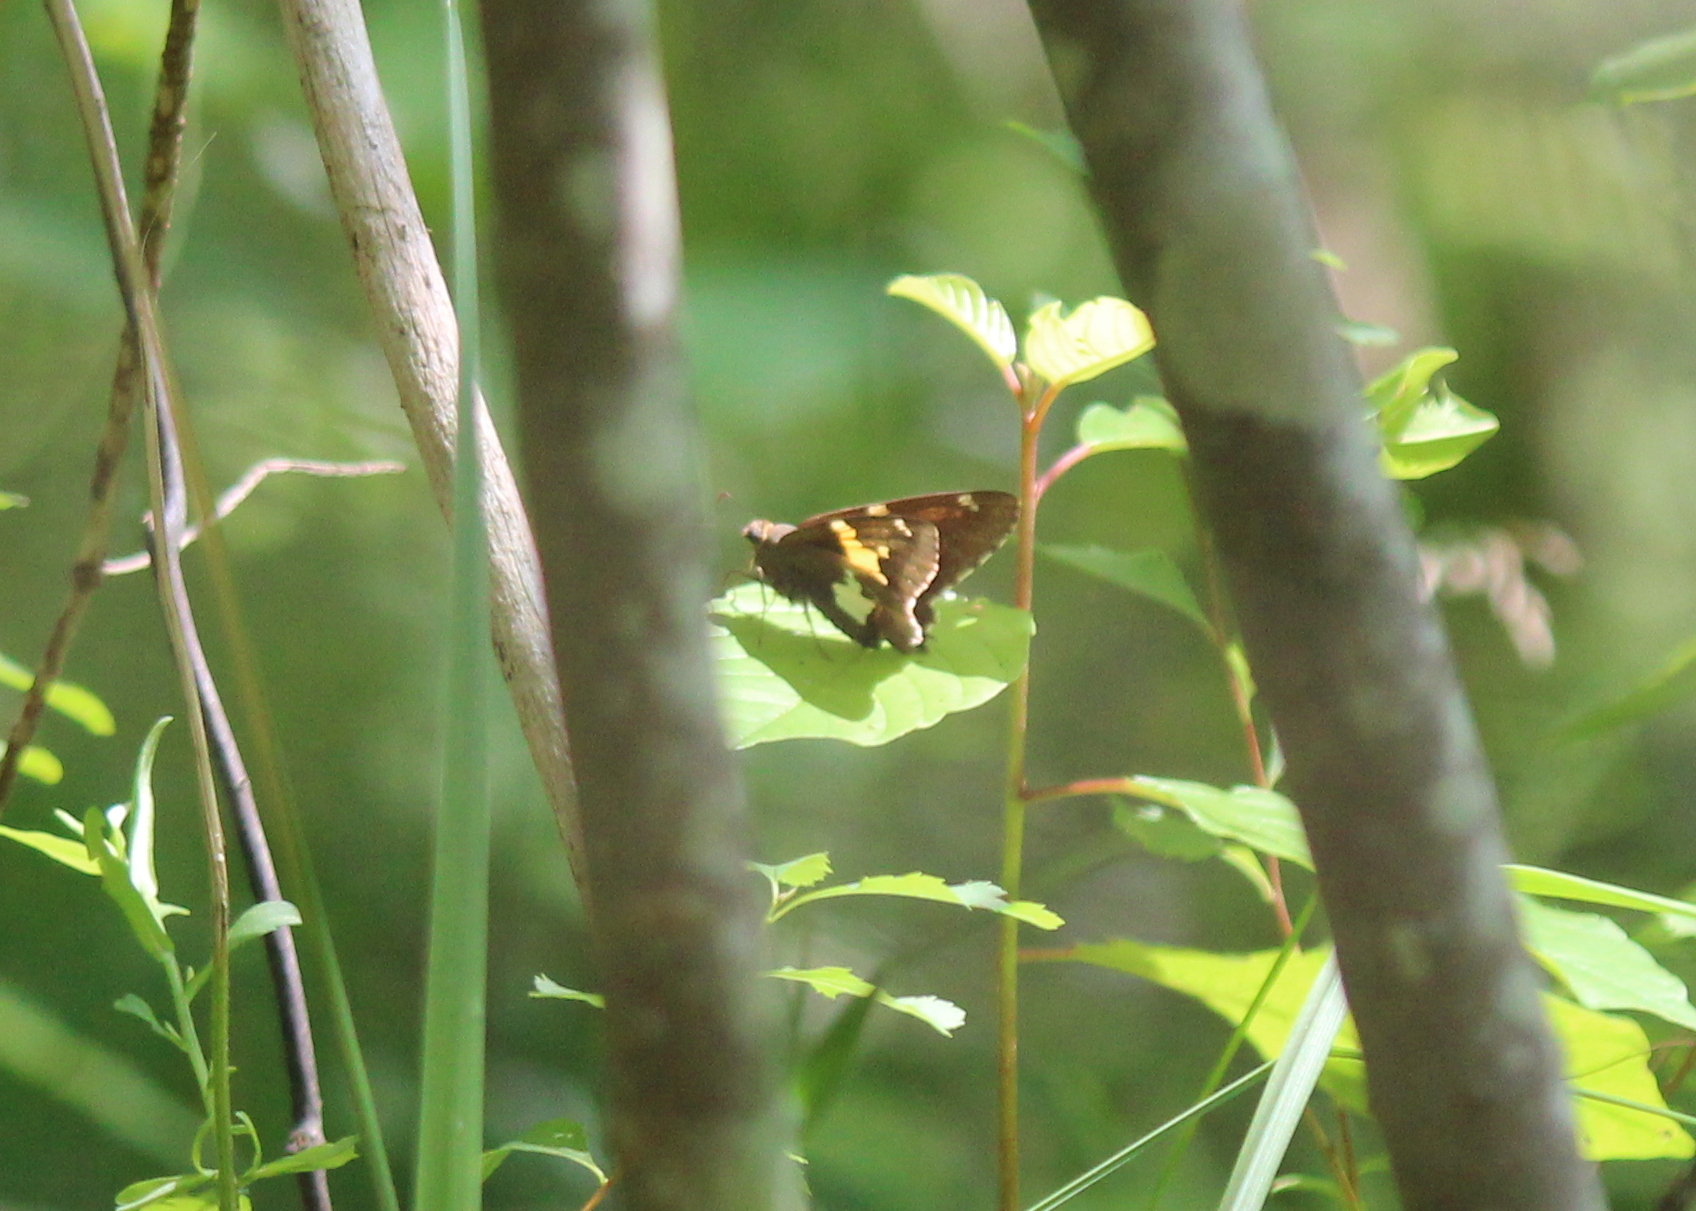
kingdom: Animalia
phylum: Arthropoda
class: Insecta
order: Lepidoptera
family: Hesperiidae
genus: Epargyreus
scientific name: Epargyreus clarus
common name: Silver-spotted skipper
